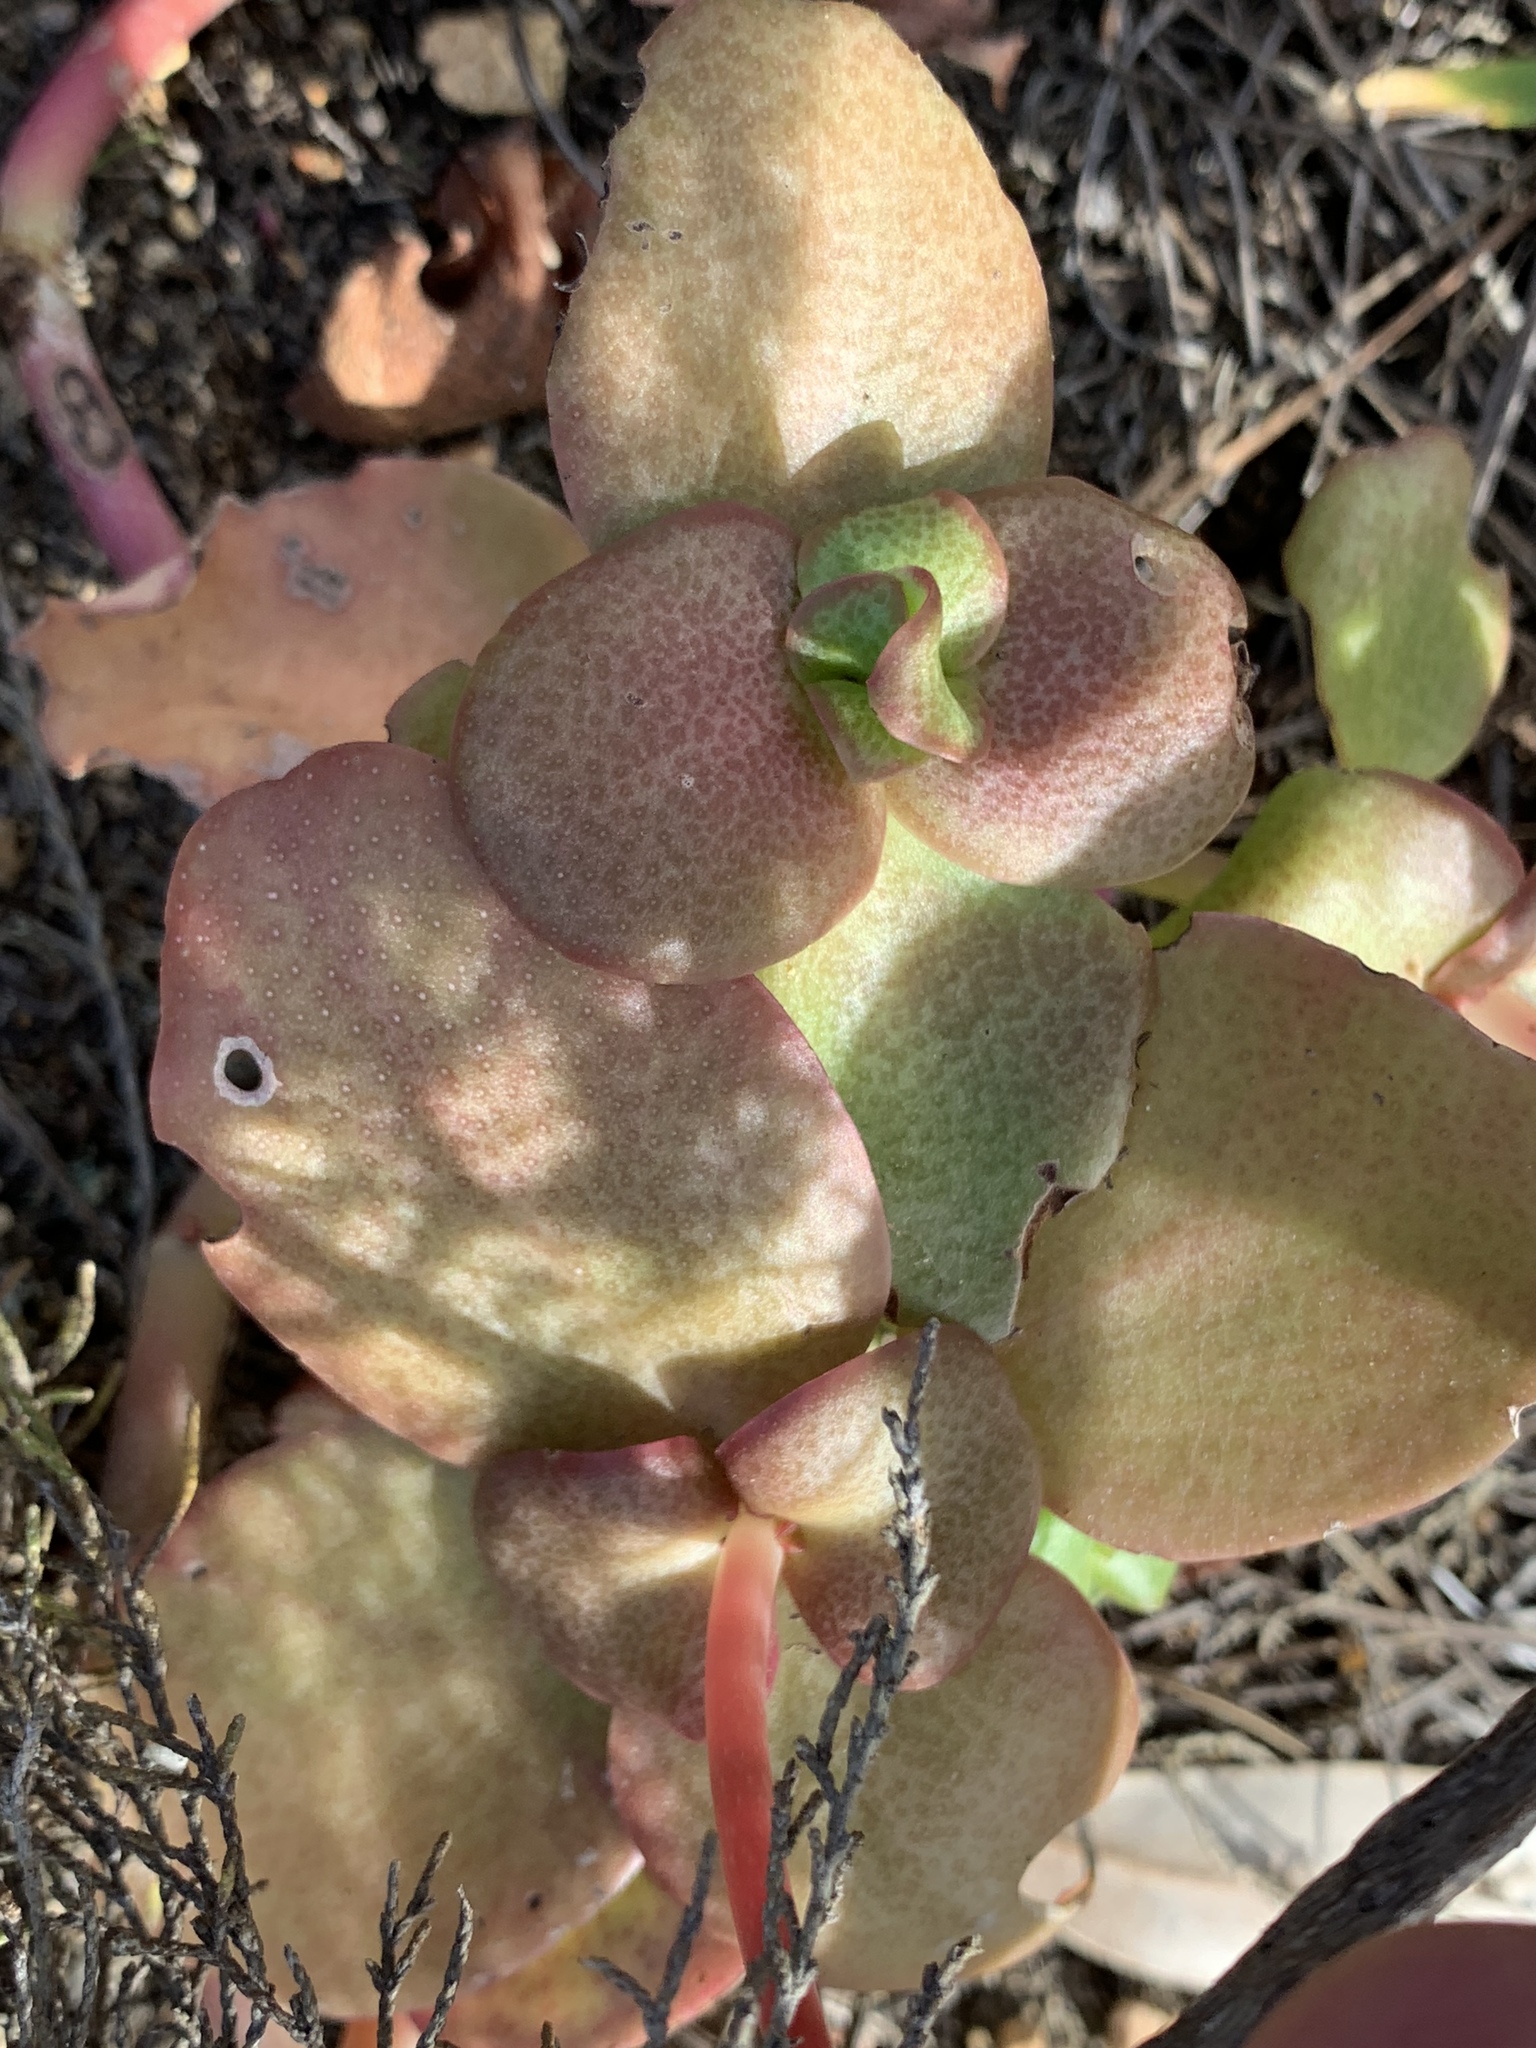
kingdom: Plantae
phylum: Tracheophyta
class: Magnoliopsida
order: Saxifragales
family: Crassulaceae
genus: Crassula
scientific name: Crassula multicava
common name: Cape province pygmyweed
